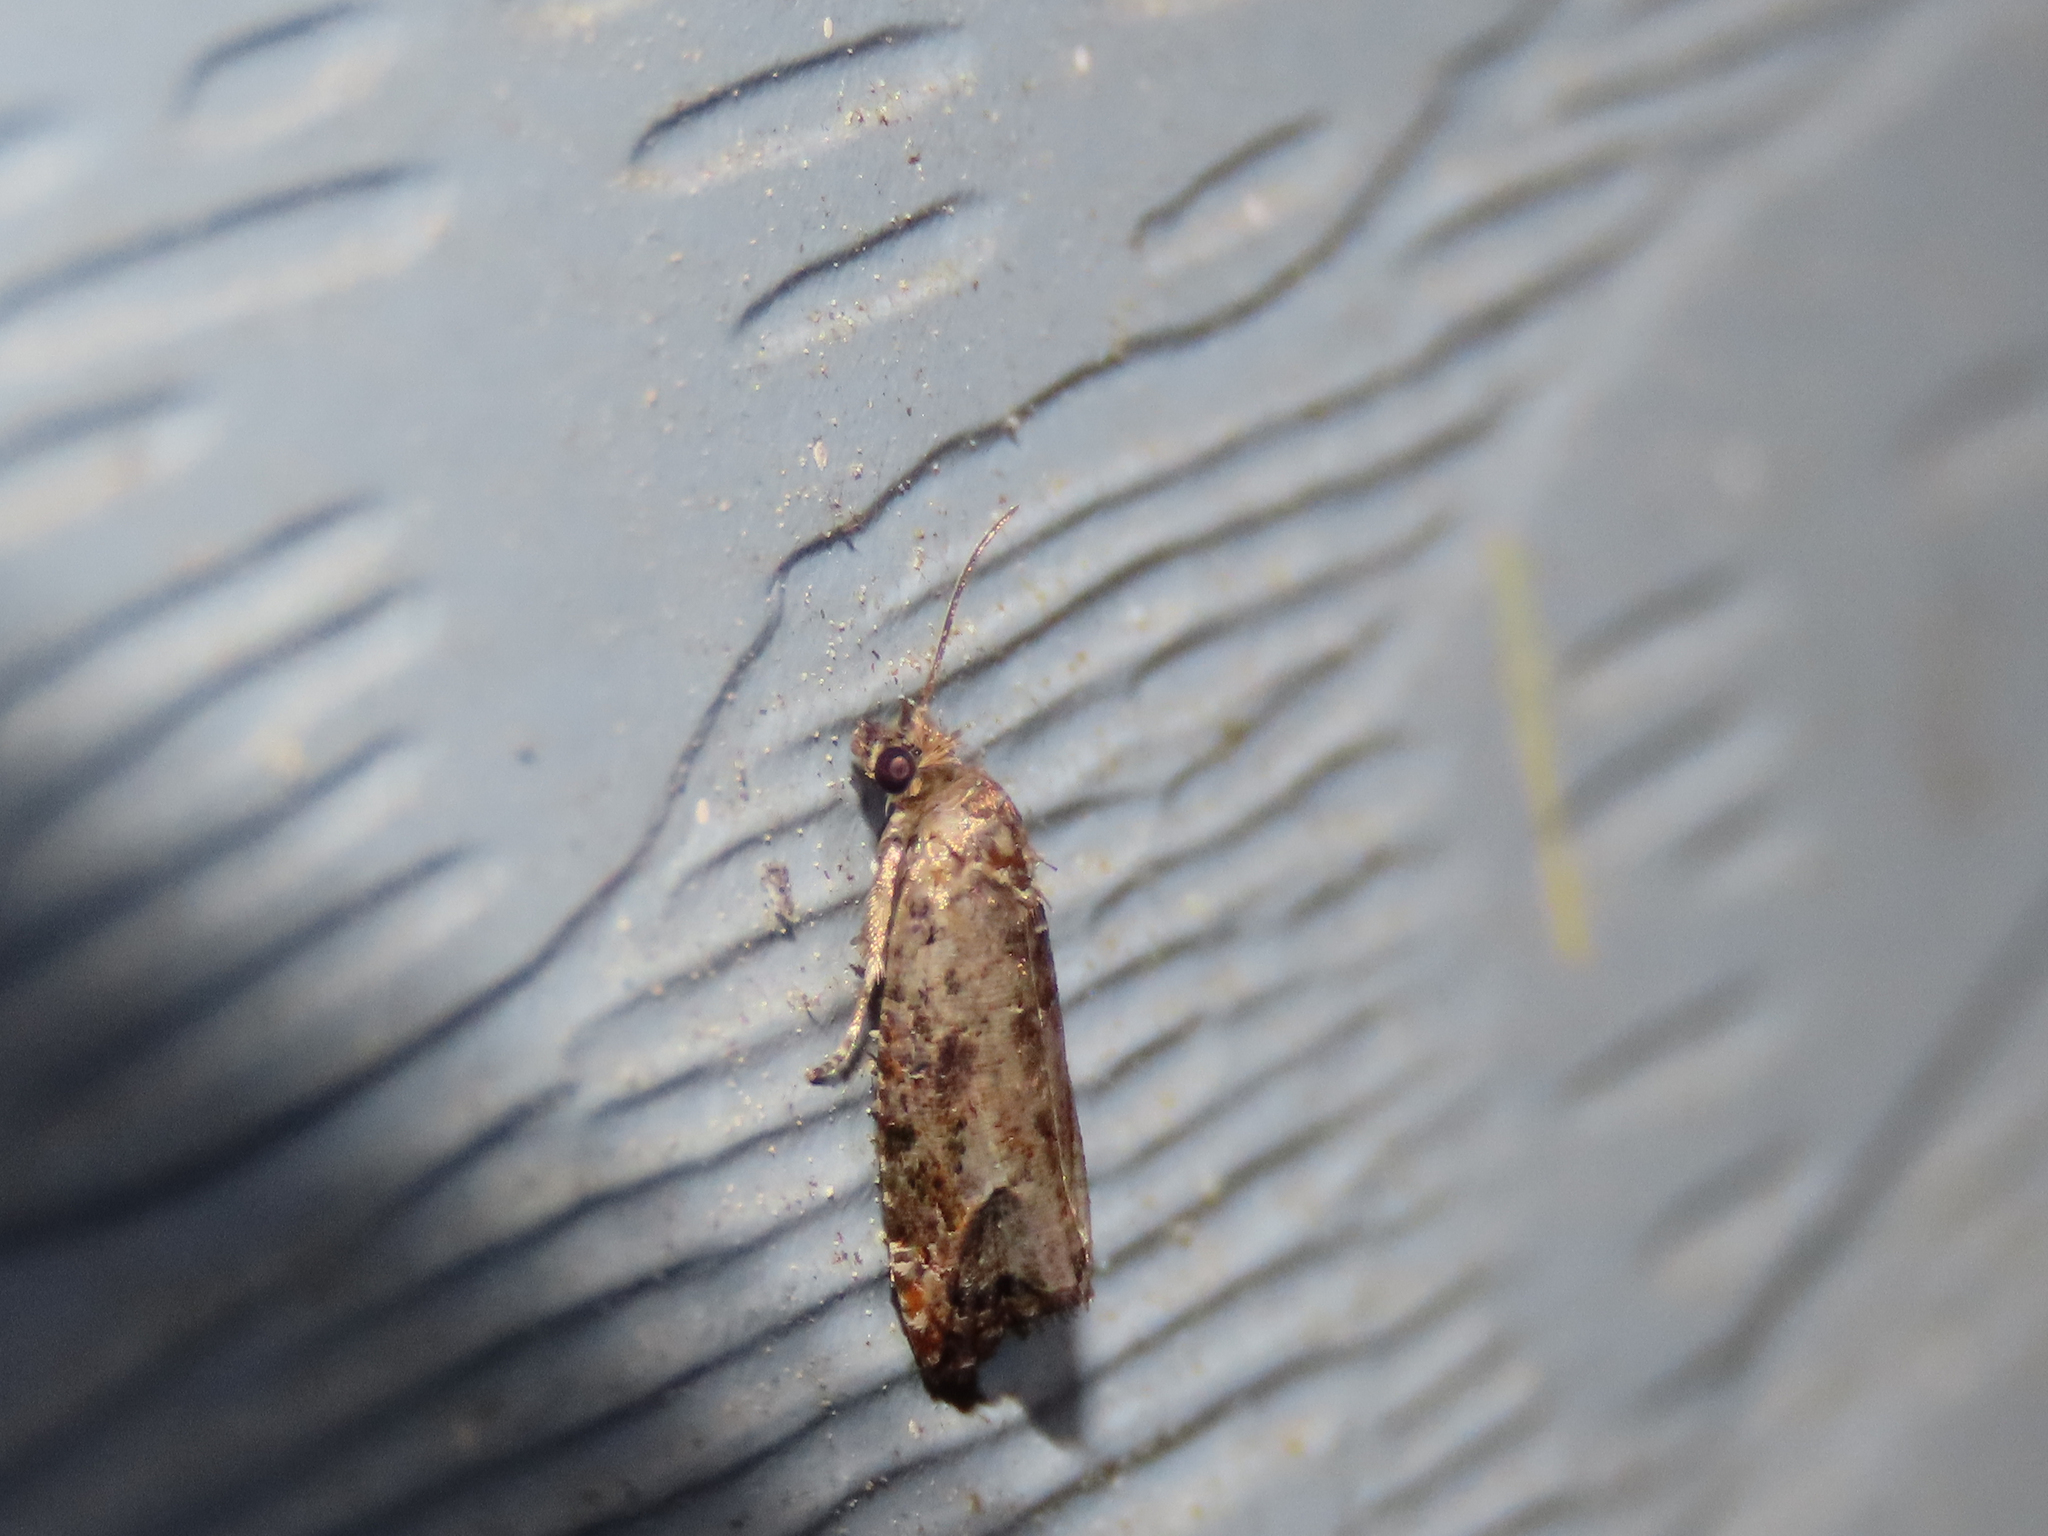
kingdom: Animalia
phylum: Arthropoda
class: Insecta
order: Lepidoptera
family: Tortricidae
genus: Epiblema
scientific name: Epiblema
